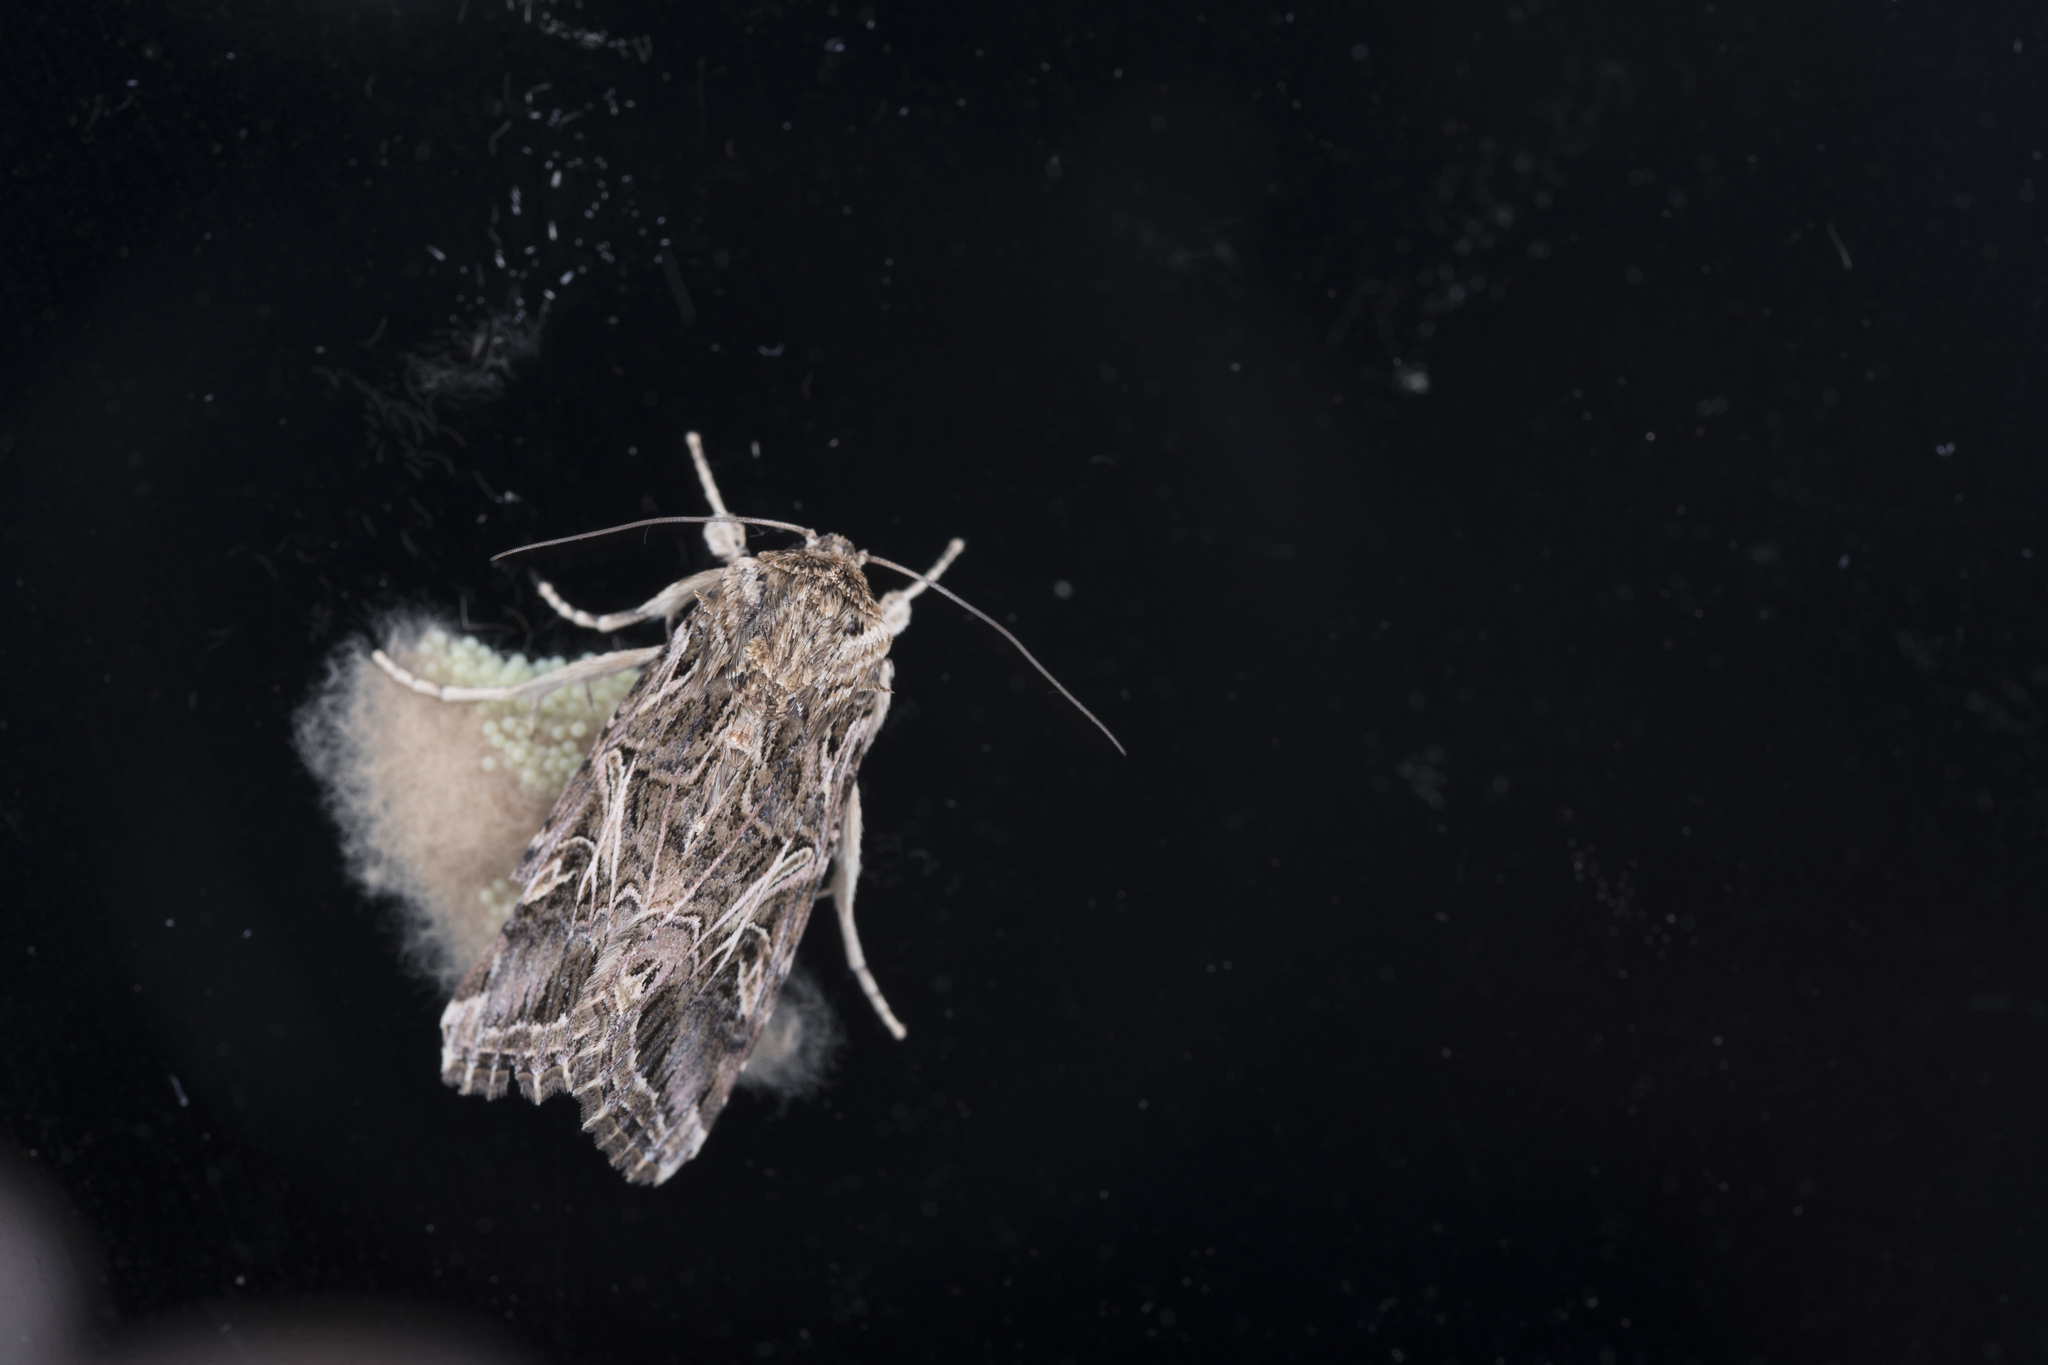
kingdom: Animalia
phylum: Arthropoda
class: Insecta
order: Lepidoptera
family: Noctuidae
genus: Spodoptera
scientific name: Spodoptera litura
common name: Asian cotton leafworm
